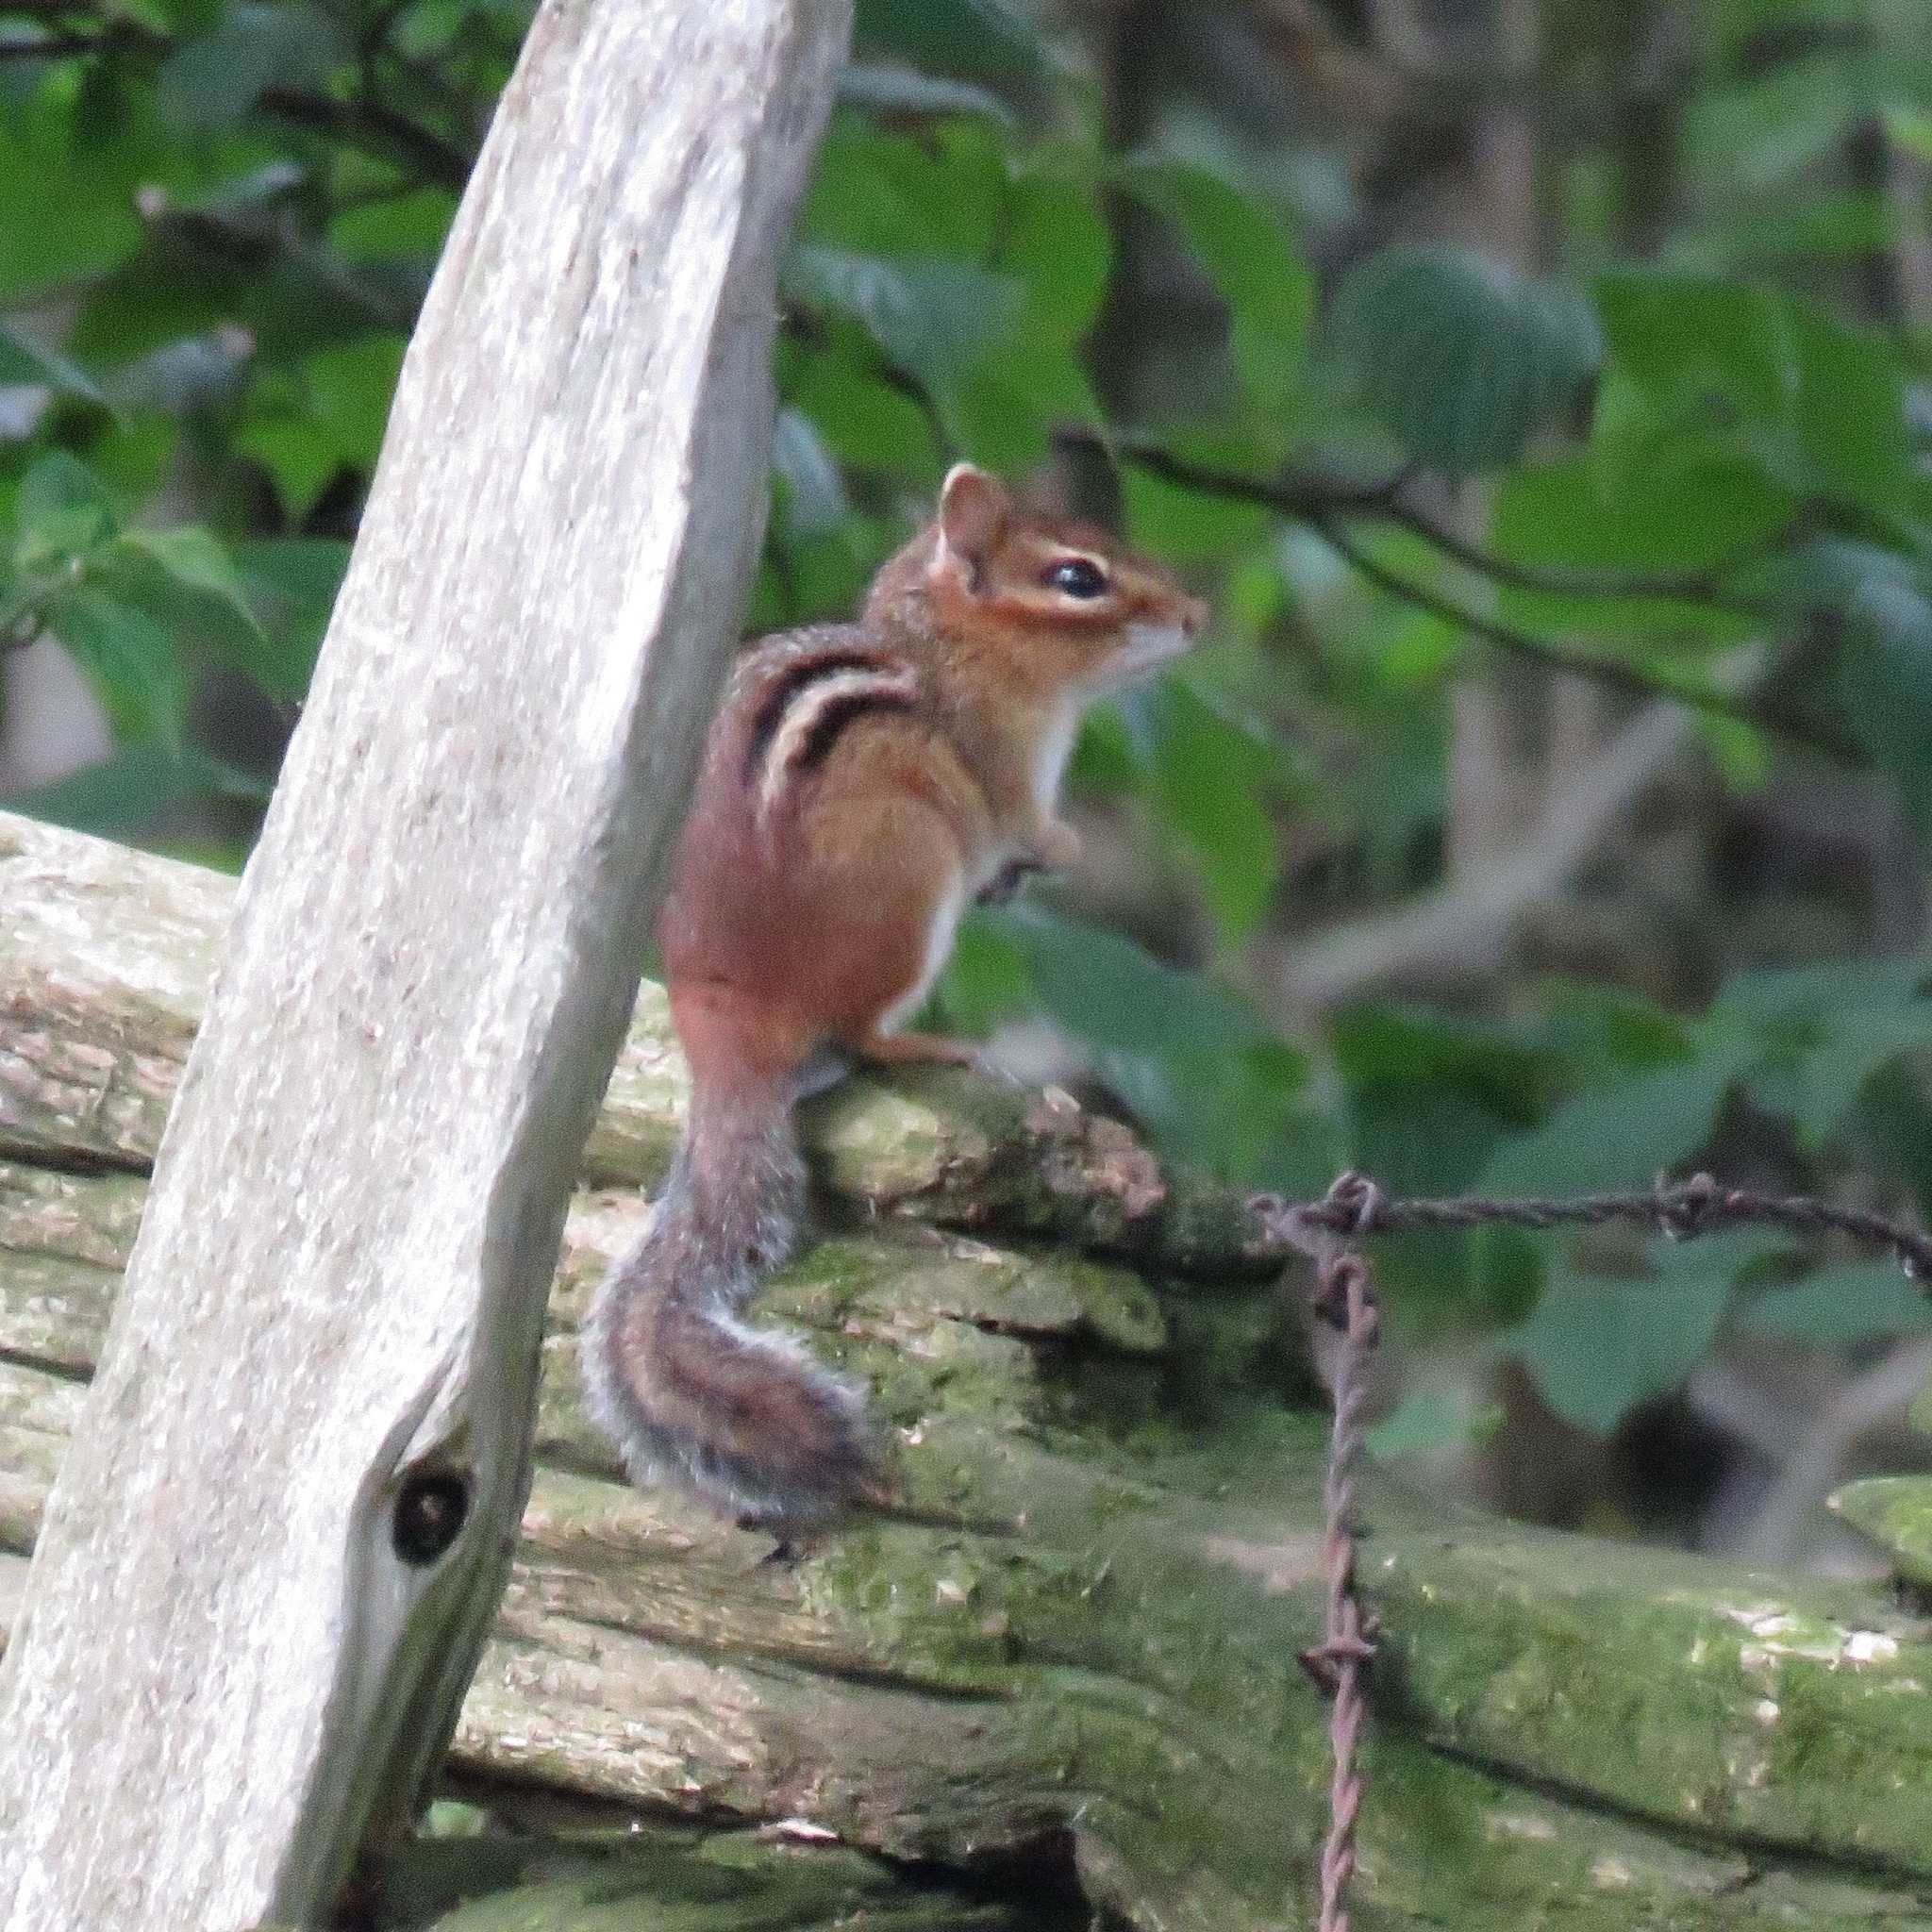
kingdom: Animalia
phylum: Chordata
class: Mammalia
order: Rodentia
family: Sciuridae
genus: Tamias
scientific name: Tamias striatus
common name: Eastern chipmunk
